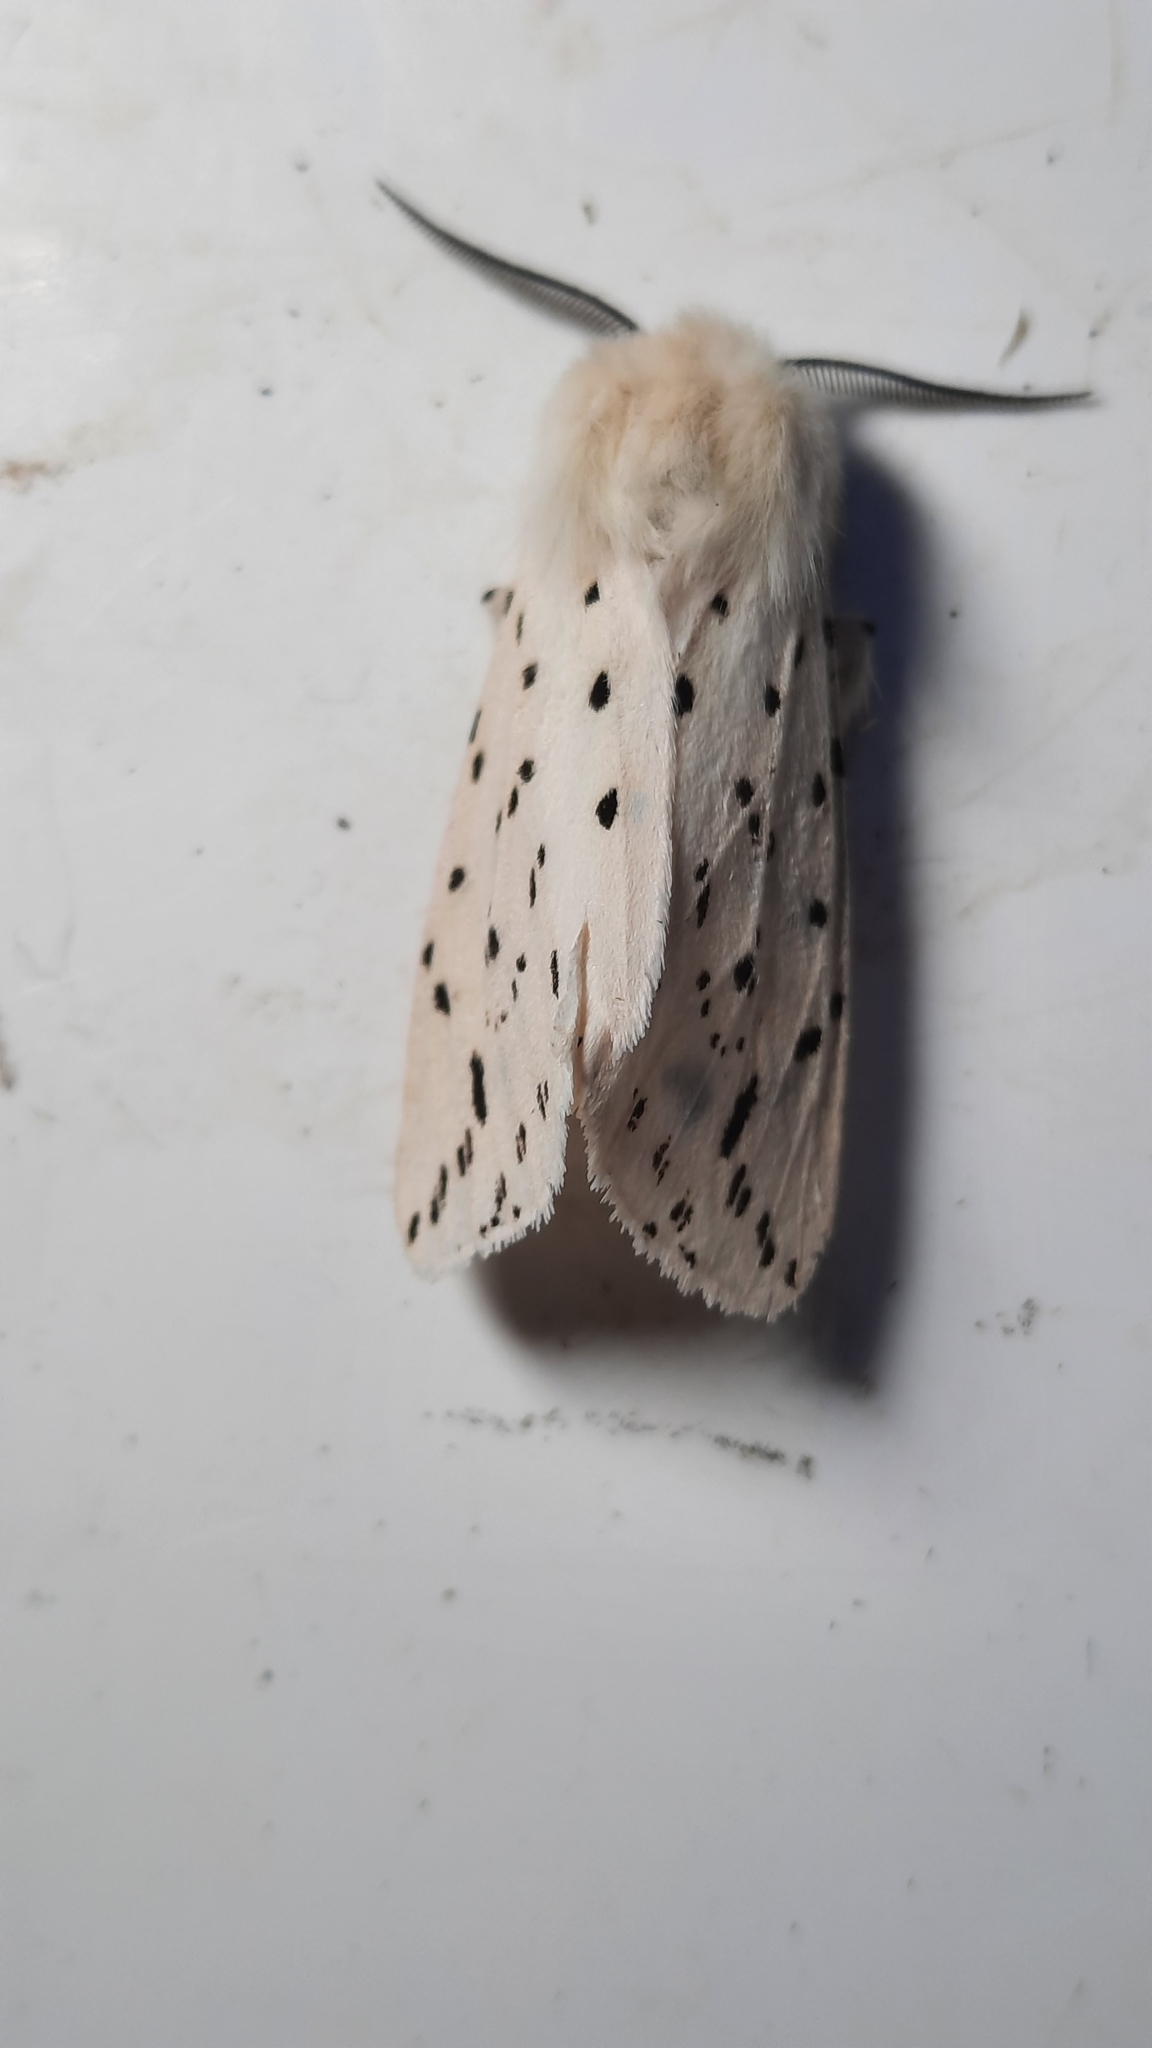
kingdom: Animalia
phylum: Arthropoda
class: Insecta
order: Lepidoptera
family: Erebidae
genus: Spilosoma
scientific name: Spilosoma lubricipeda
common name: White ermine
